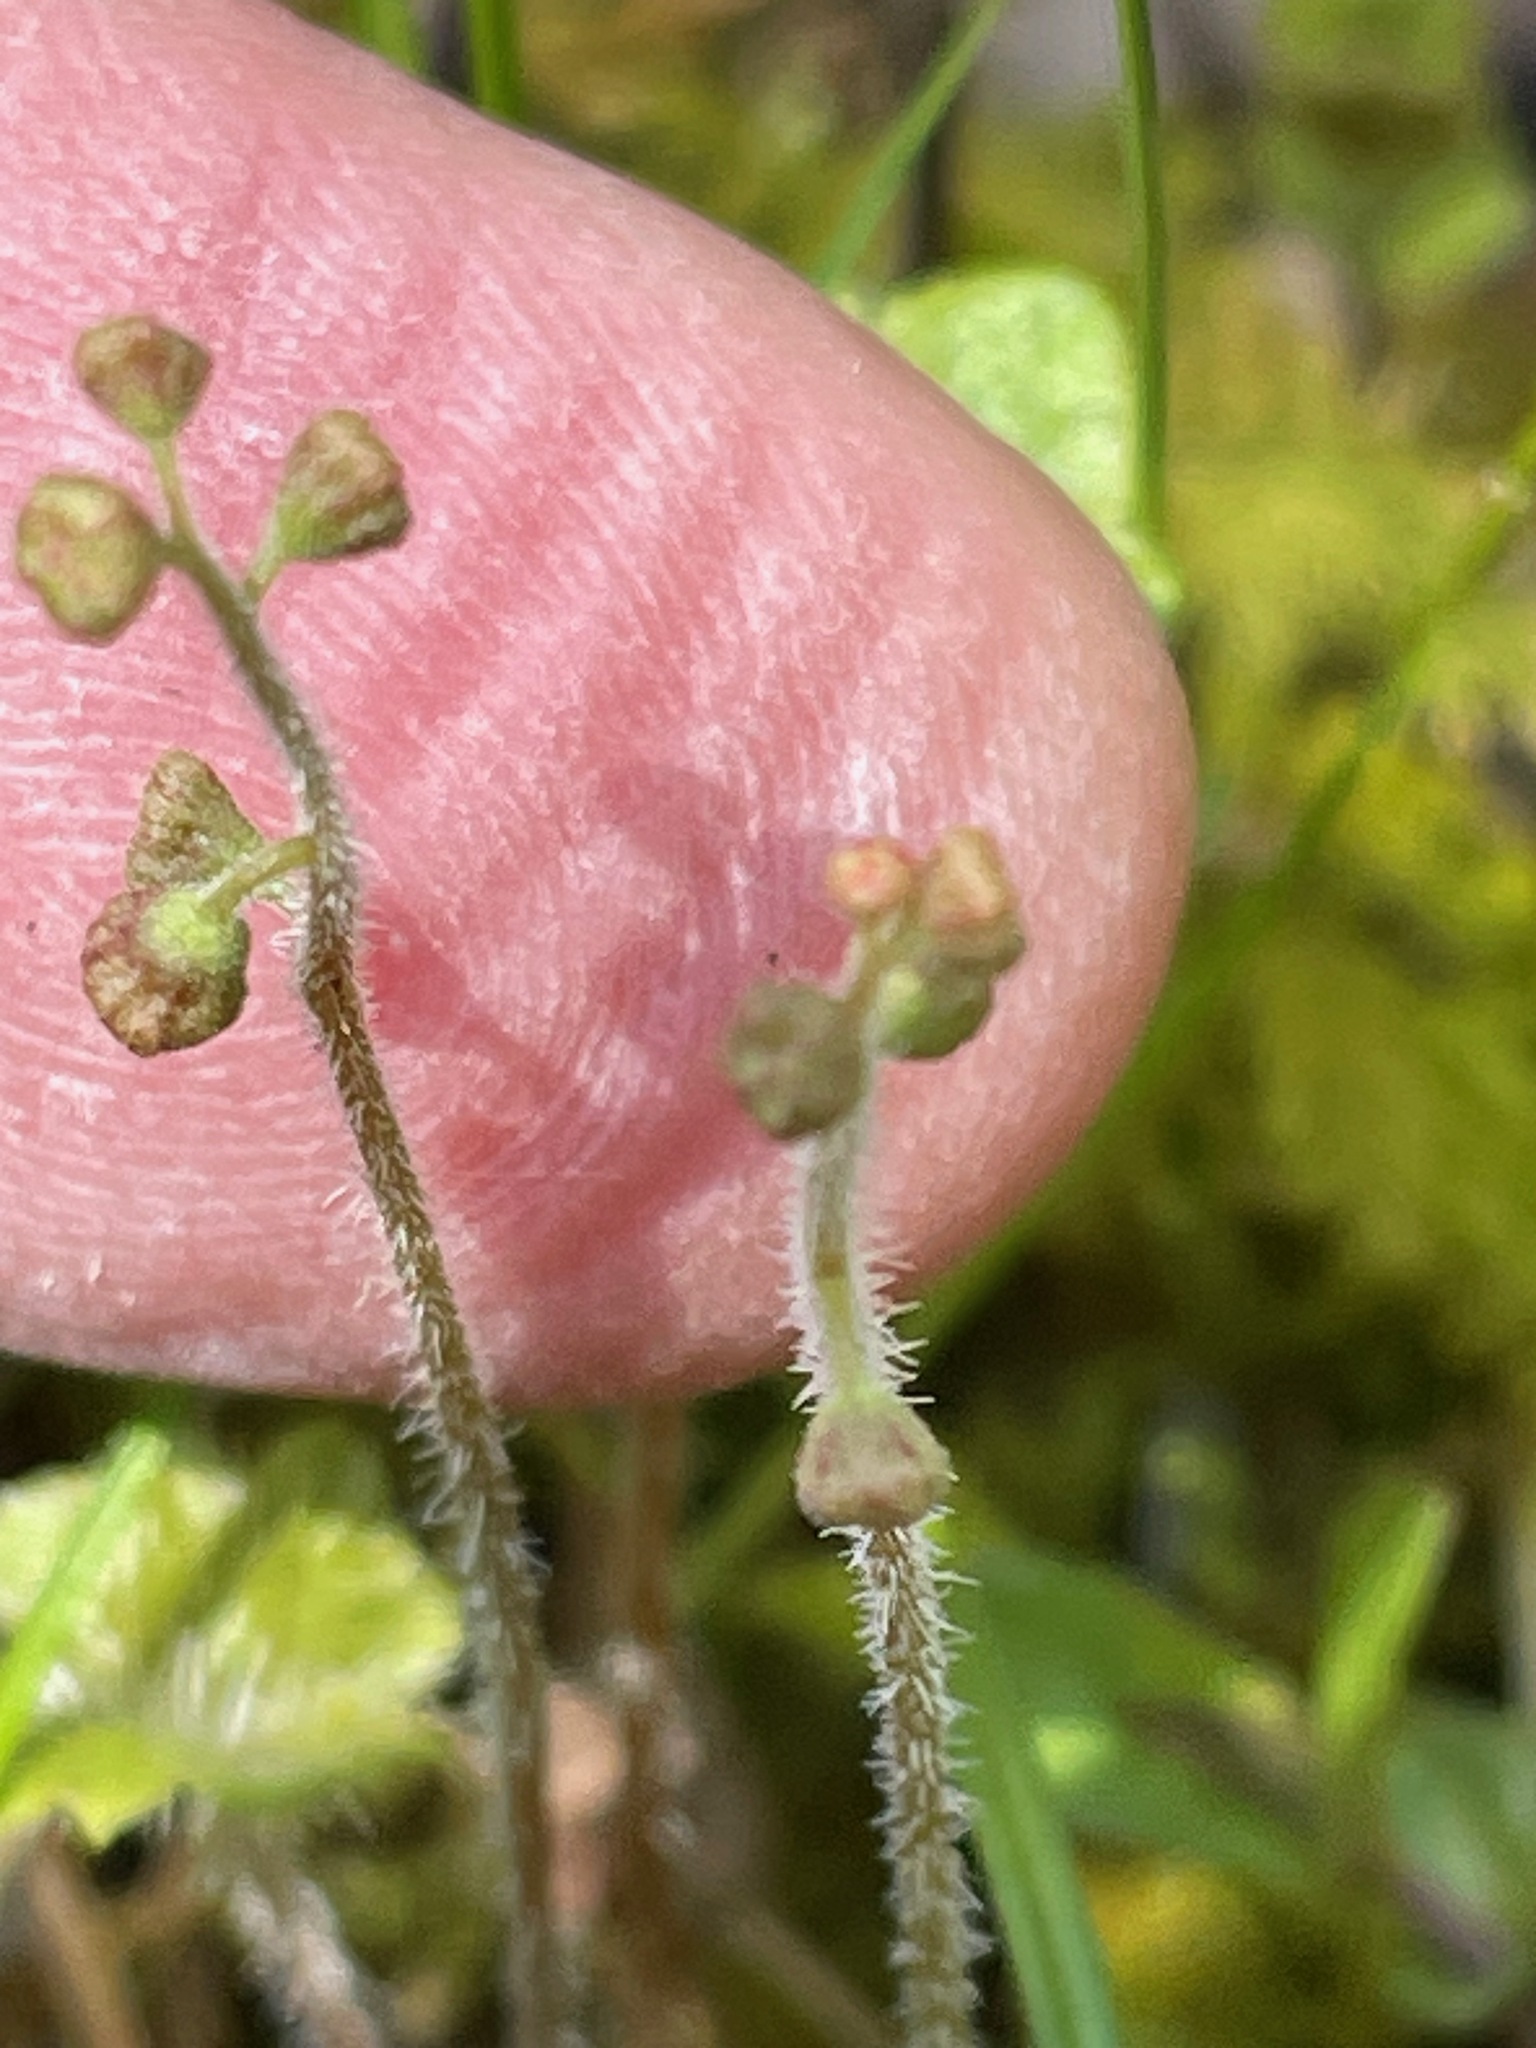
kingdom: Plantae
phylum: Tracheophyta
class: Magnoliopsida
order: Saxifragales
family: Saxifragaceae
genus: Mitella
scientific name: Mitella nuda
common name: Bare-stemmed bishop's-cap
